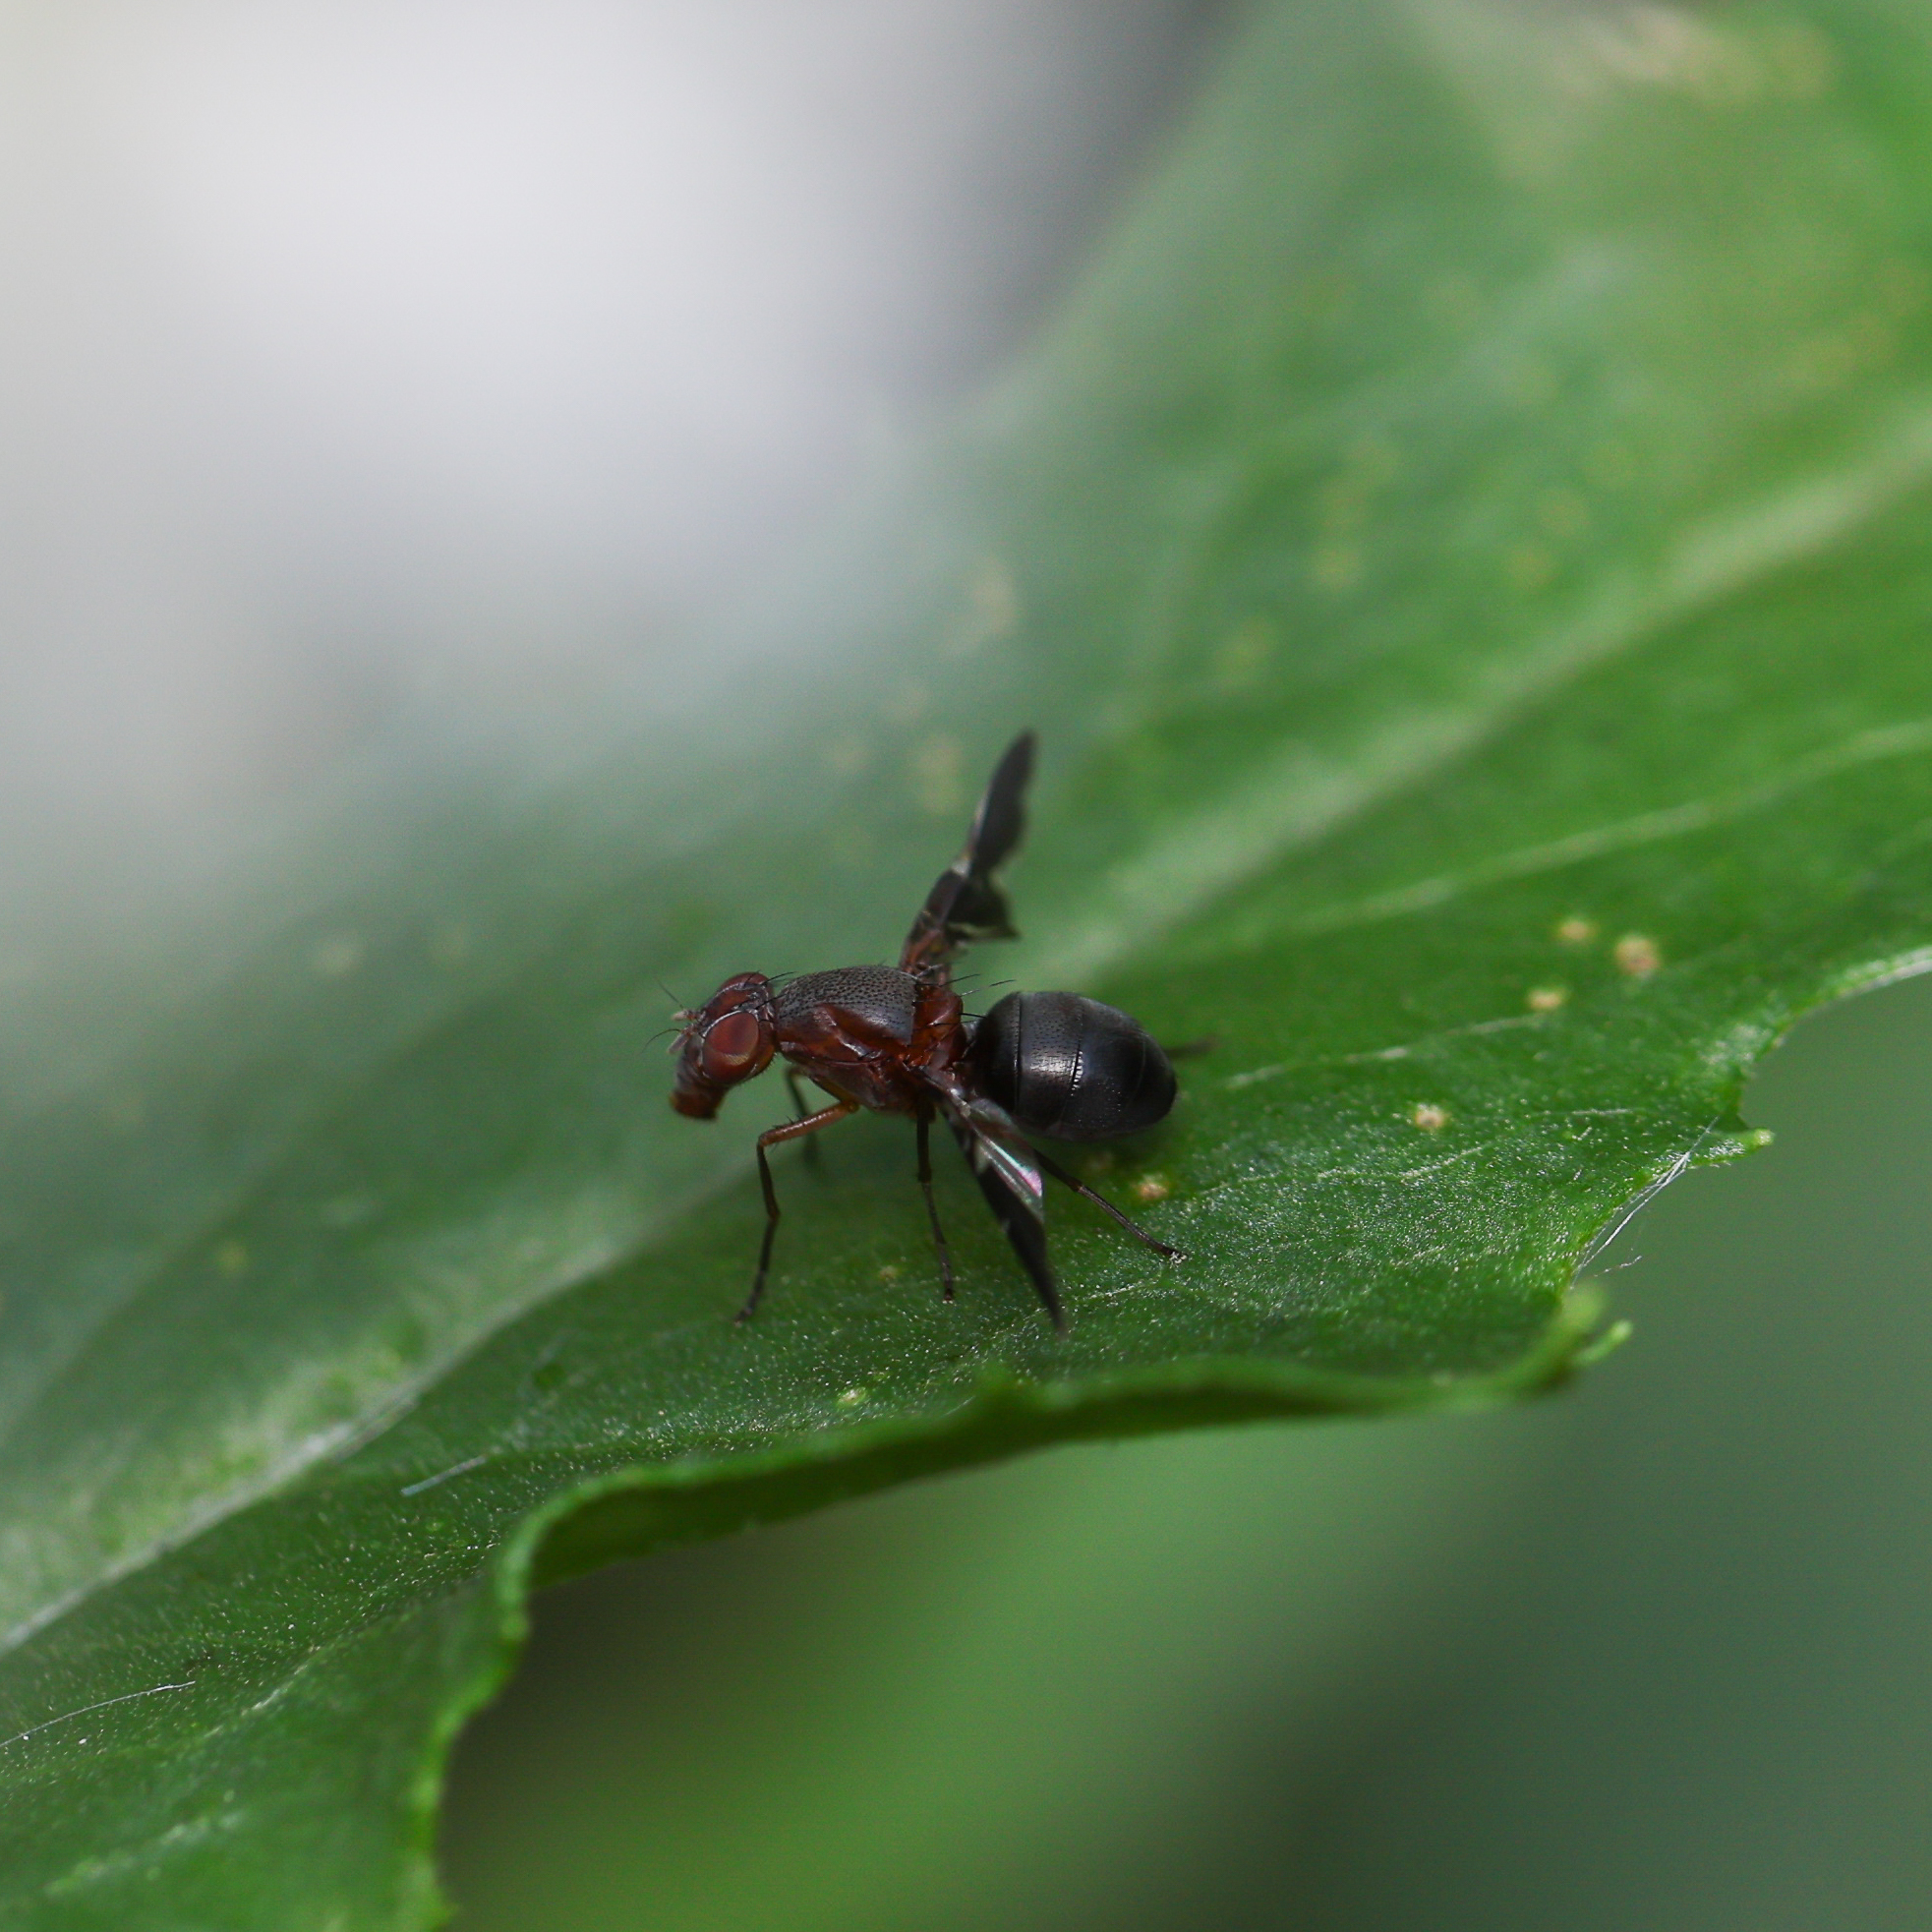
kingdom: Animalia
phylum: Arthropoda
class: Insecta
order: Diptera
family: Ulidiidae
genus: Delphinia
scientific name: Delphinia picta
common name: Common picture-winged fly
